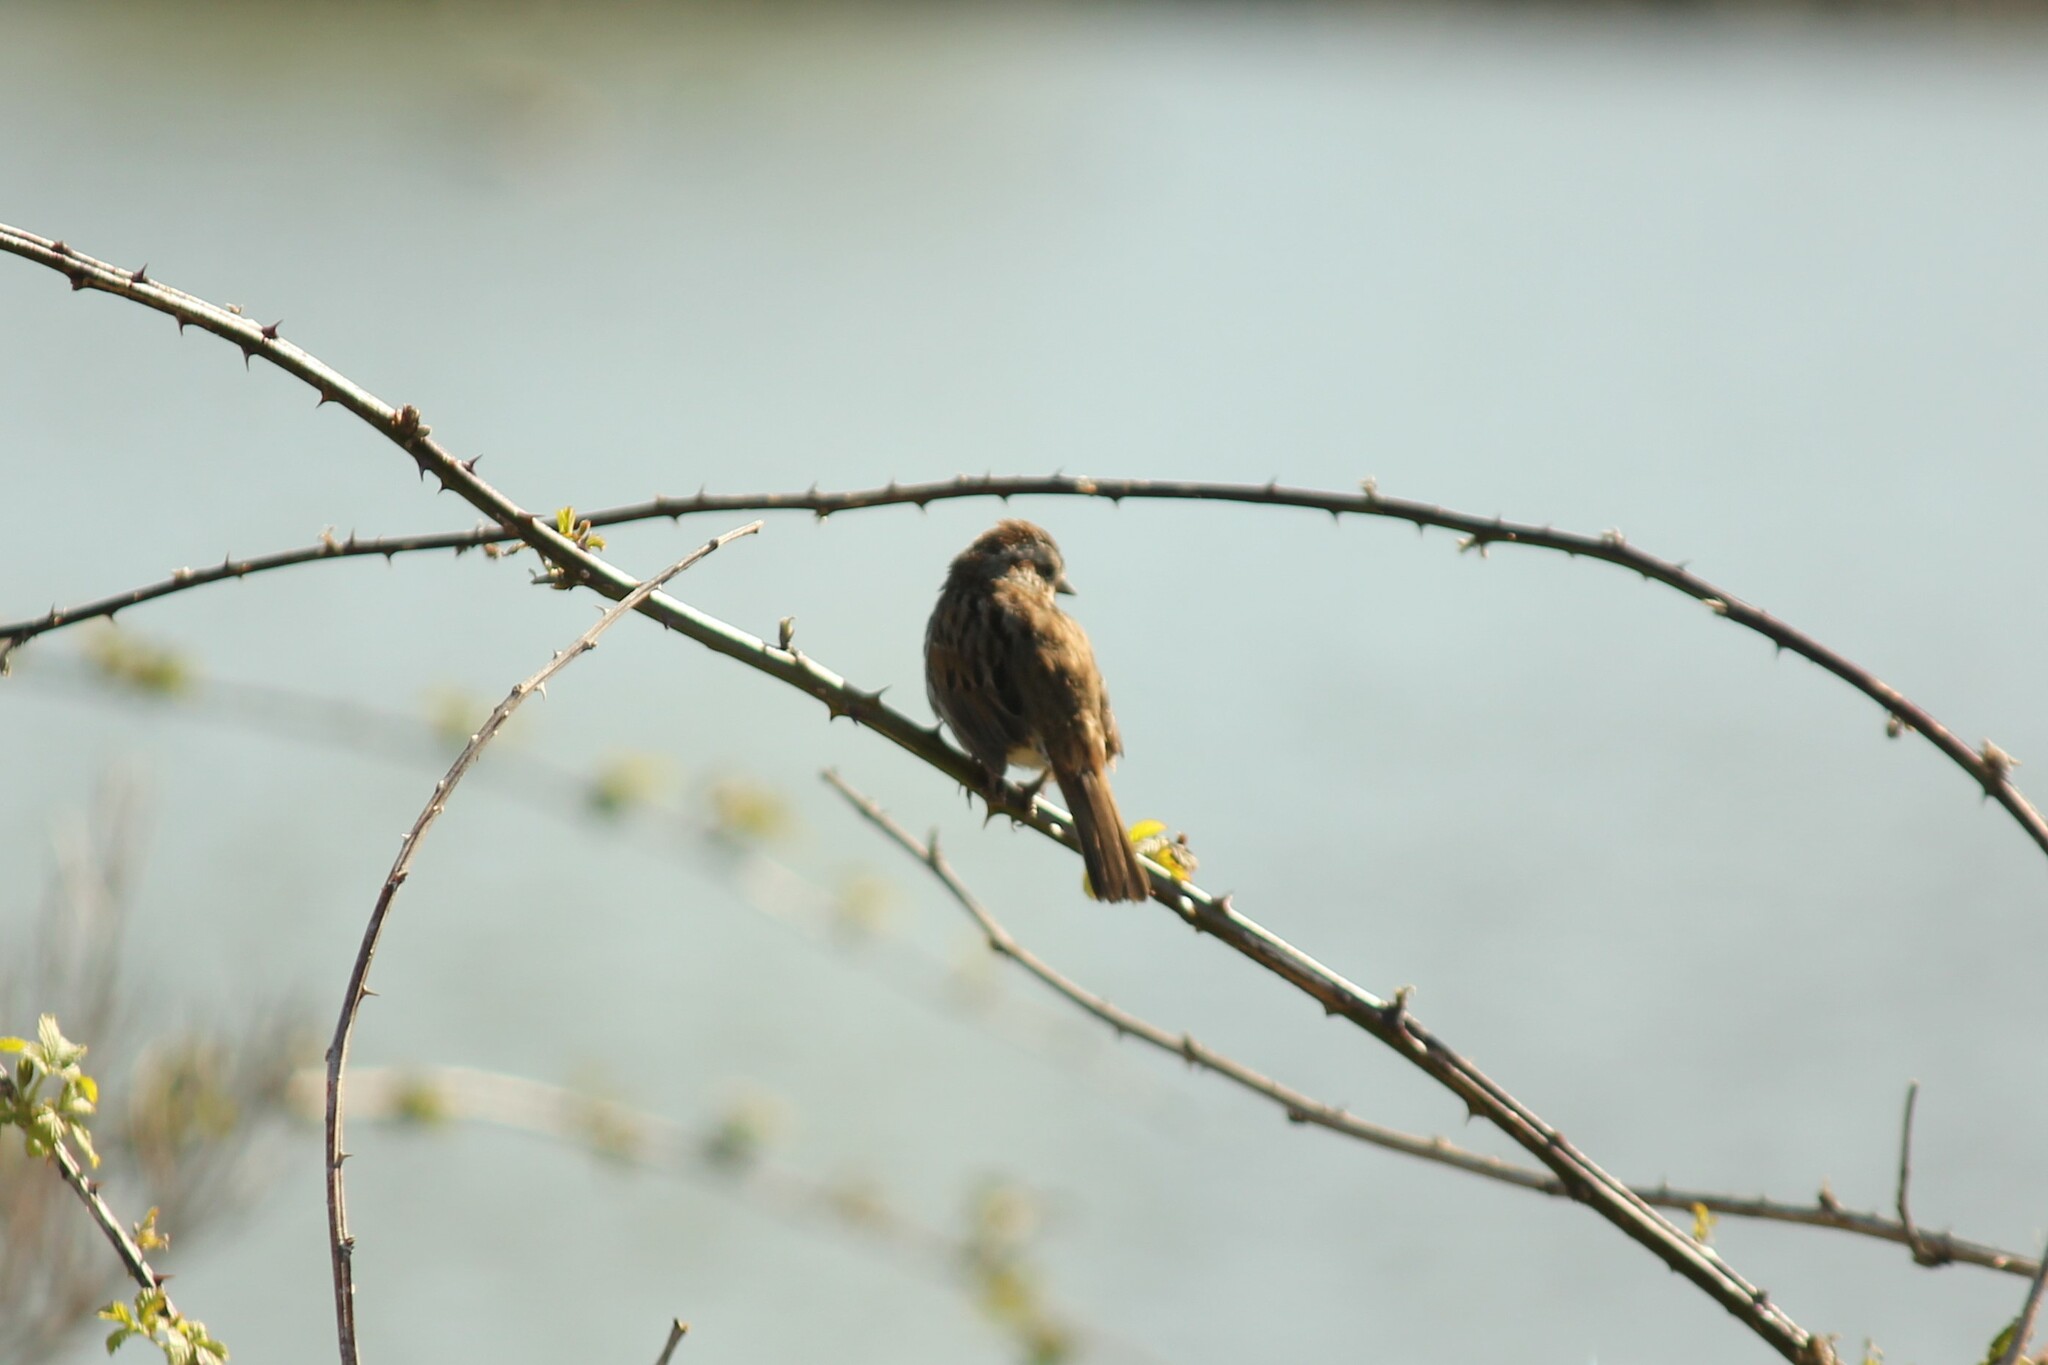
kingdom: Animalia
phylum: Chordata
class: Aves
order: Passeriformes
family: Passerellidae
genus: Melospiza
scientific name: Melospiza melodia
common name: Song sparrow
